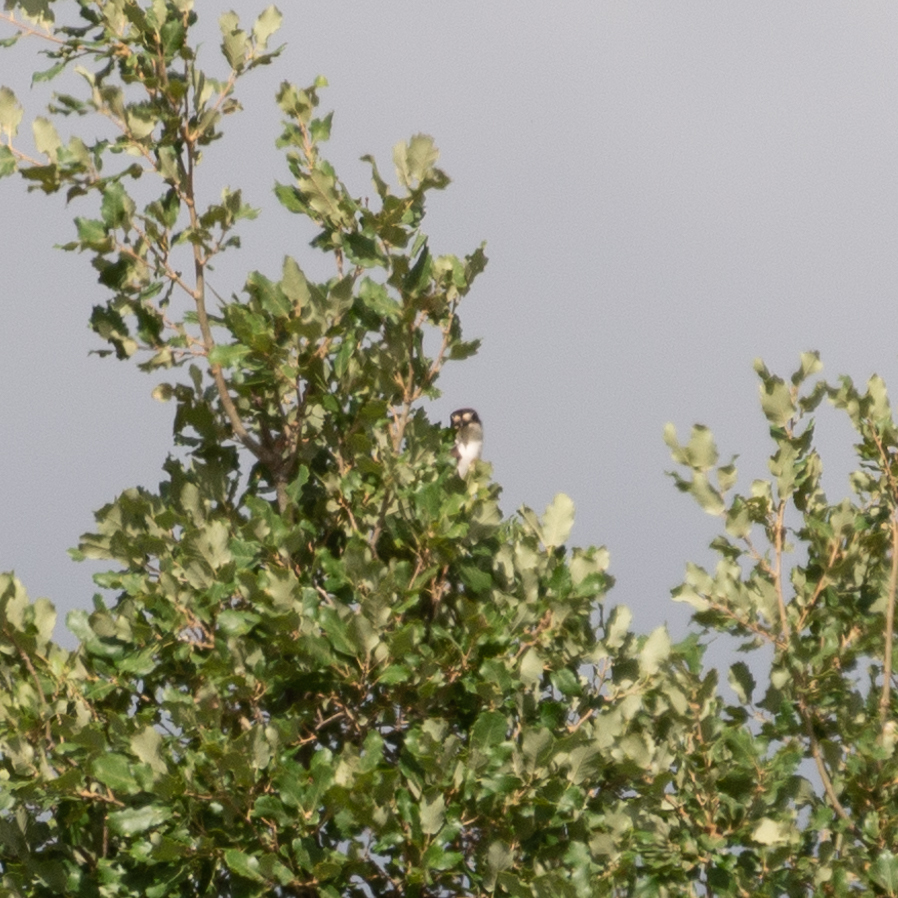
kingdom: Animalia
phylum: Chordata
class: Aves
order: Passeriformes
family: Laniidae
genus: Lanius
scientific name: Lanius senator
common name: Woodchat shrike
